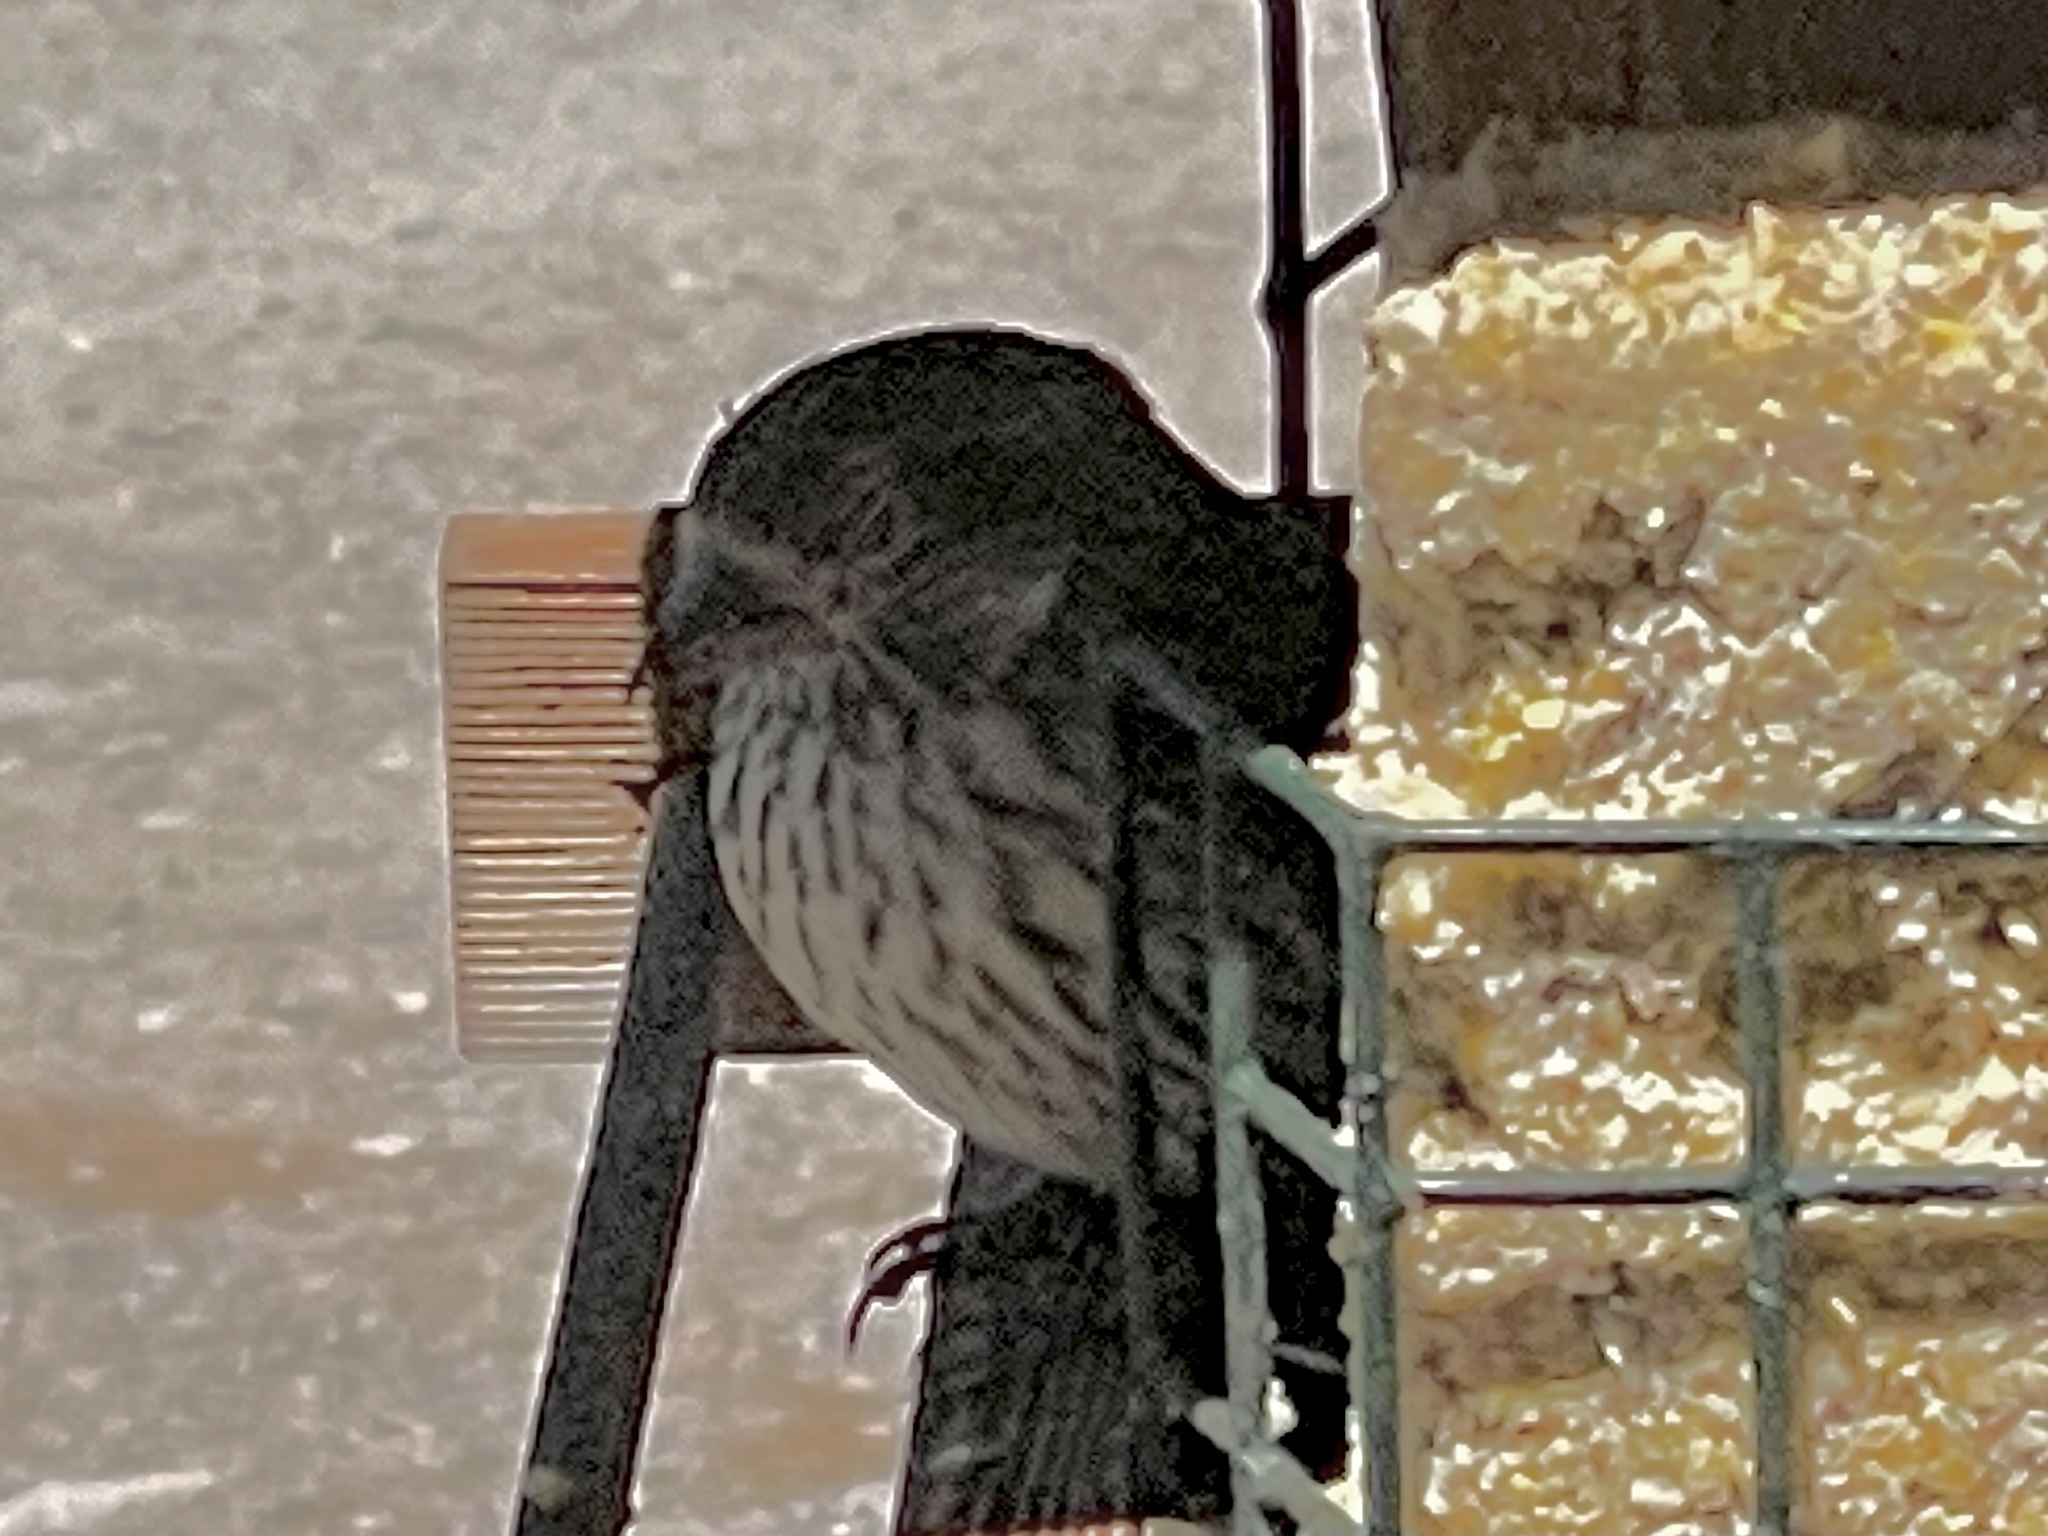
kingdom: Animalia
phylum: Chordata
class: Aves
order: Passeriformes
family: Fringillidae
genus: Haemorhous
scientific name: Haemorhous cassinii
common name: Cassin's finch
